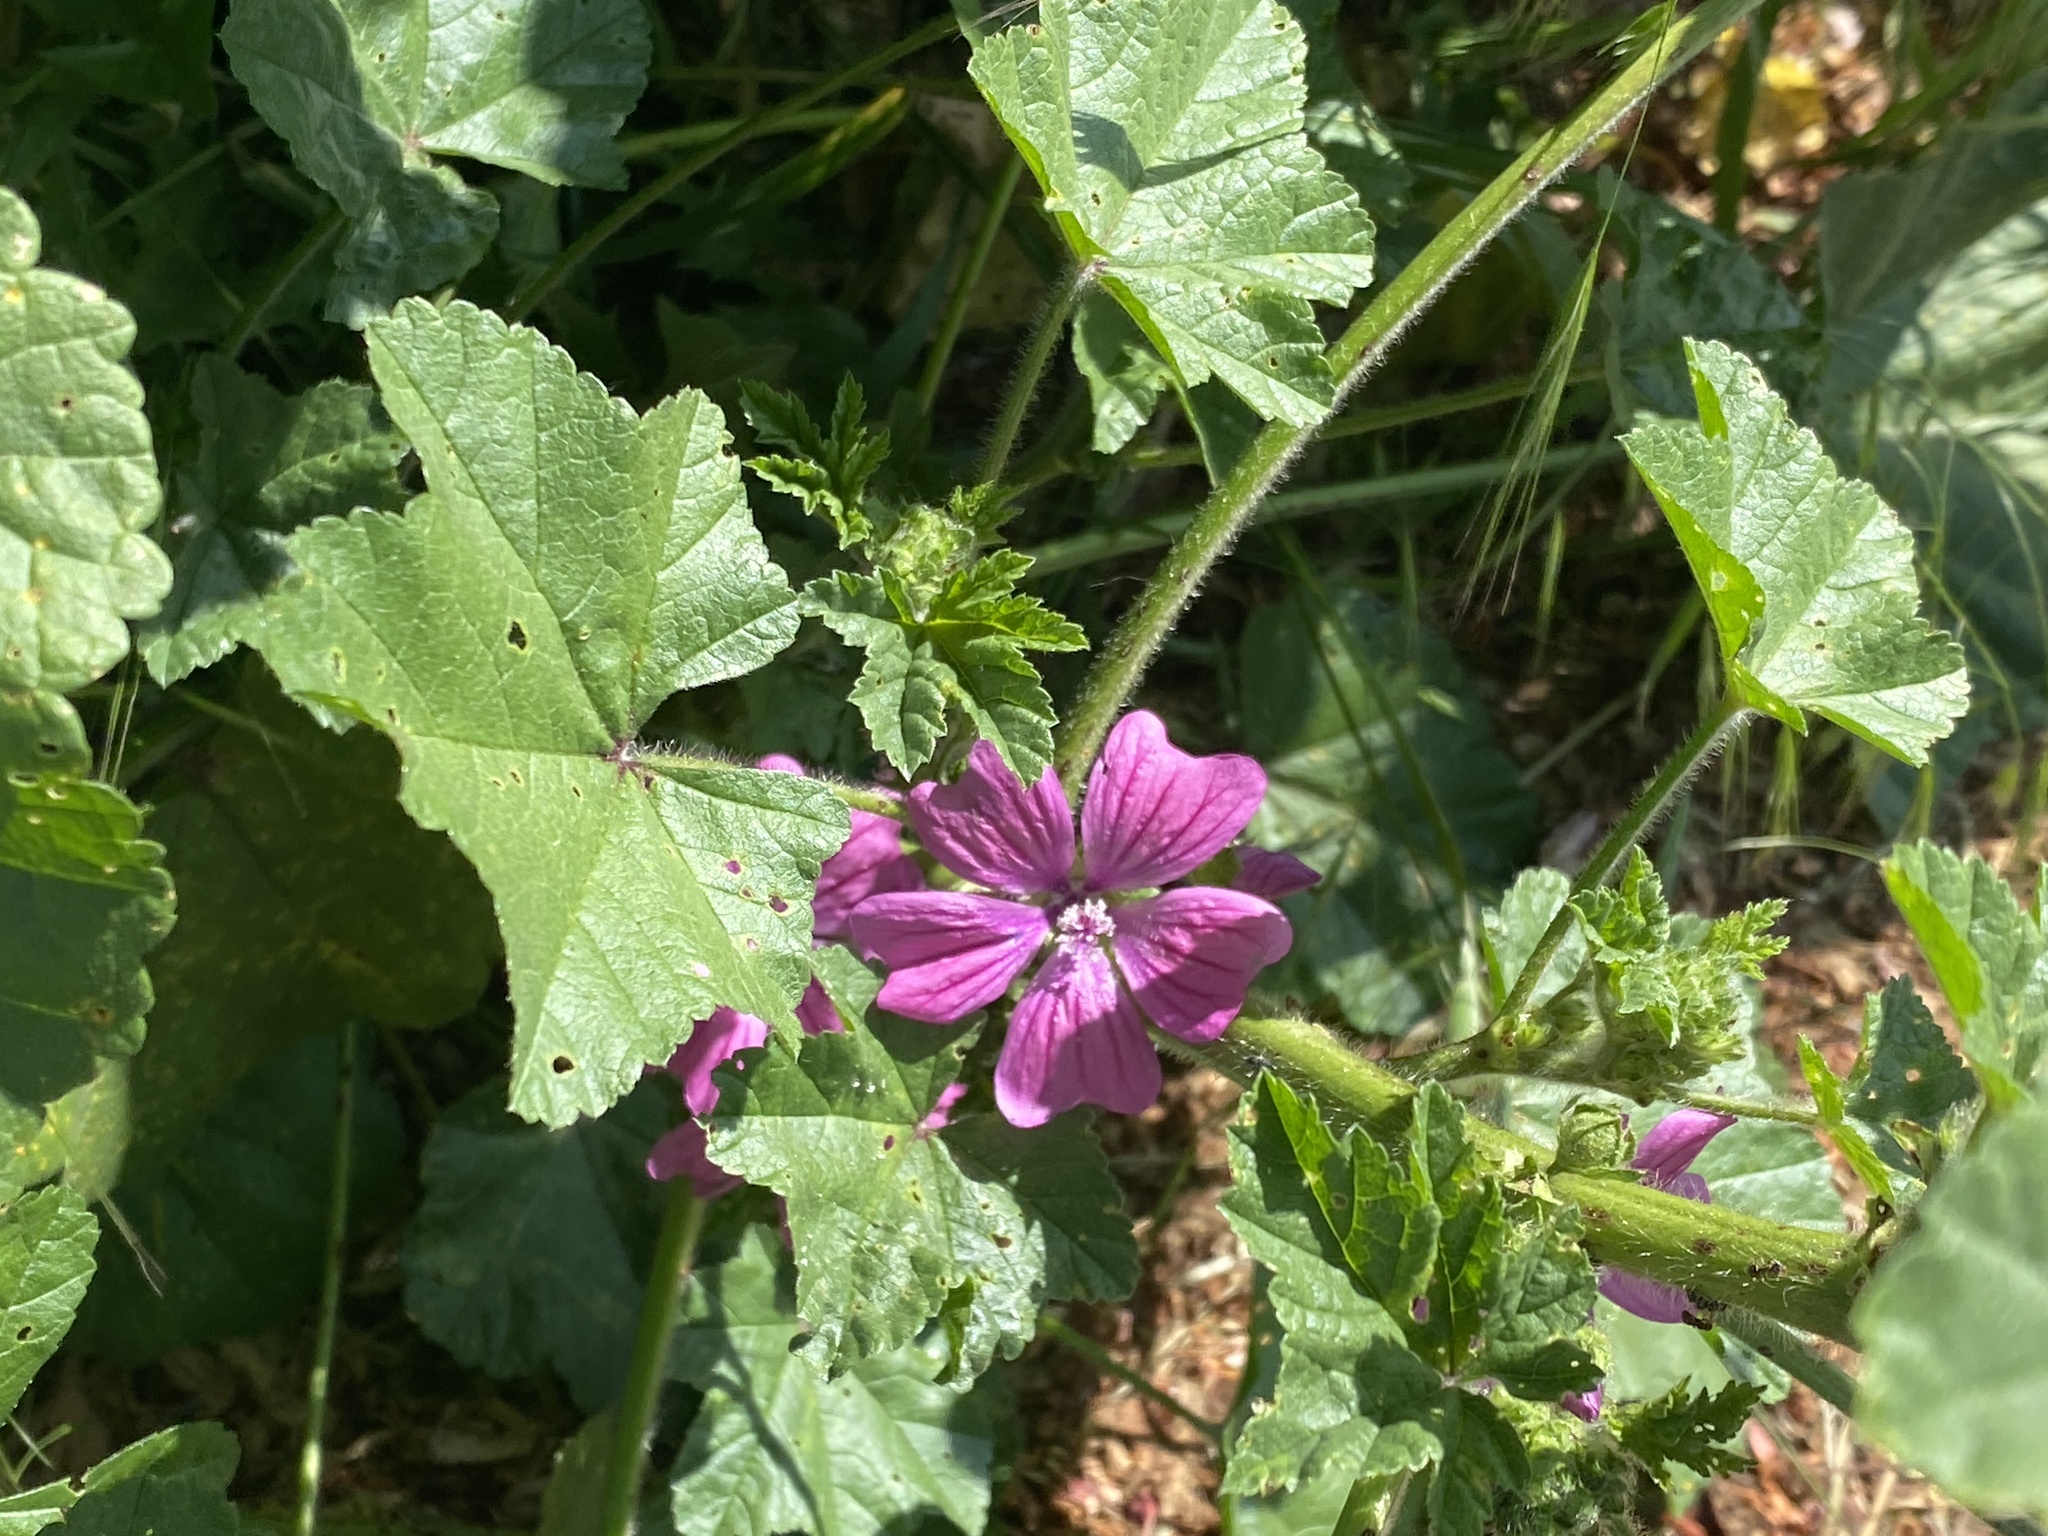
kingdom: Plantae
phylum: Tracheophyta
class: Magnoliopsida
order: Malvales
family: Malvaceae
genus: Malva
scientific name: Malva sylvestris
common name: Common mallow
